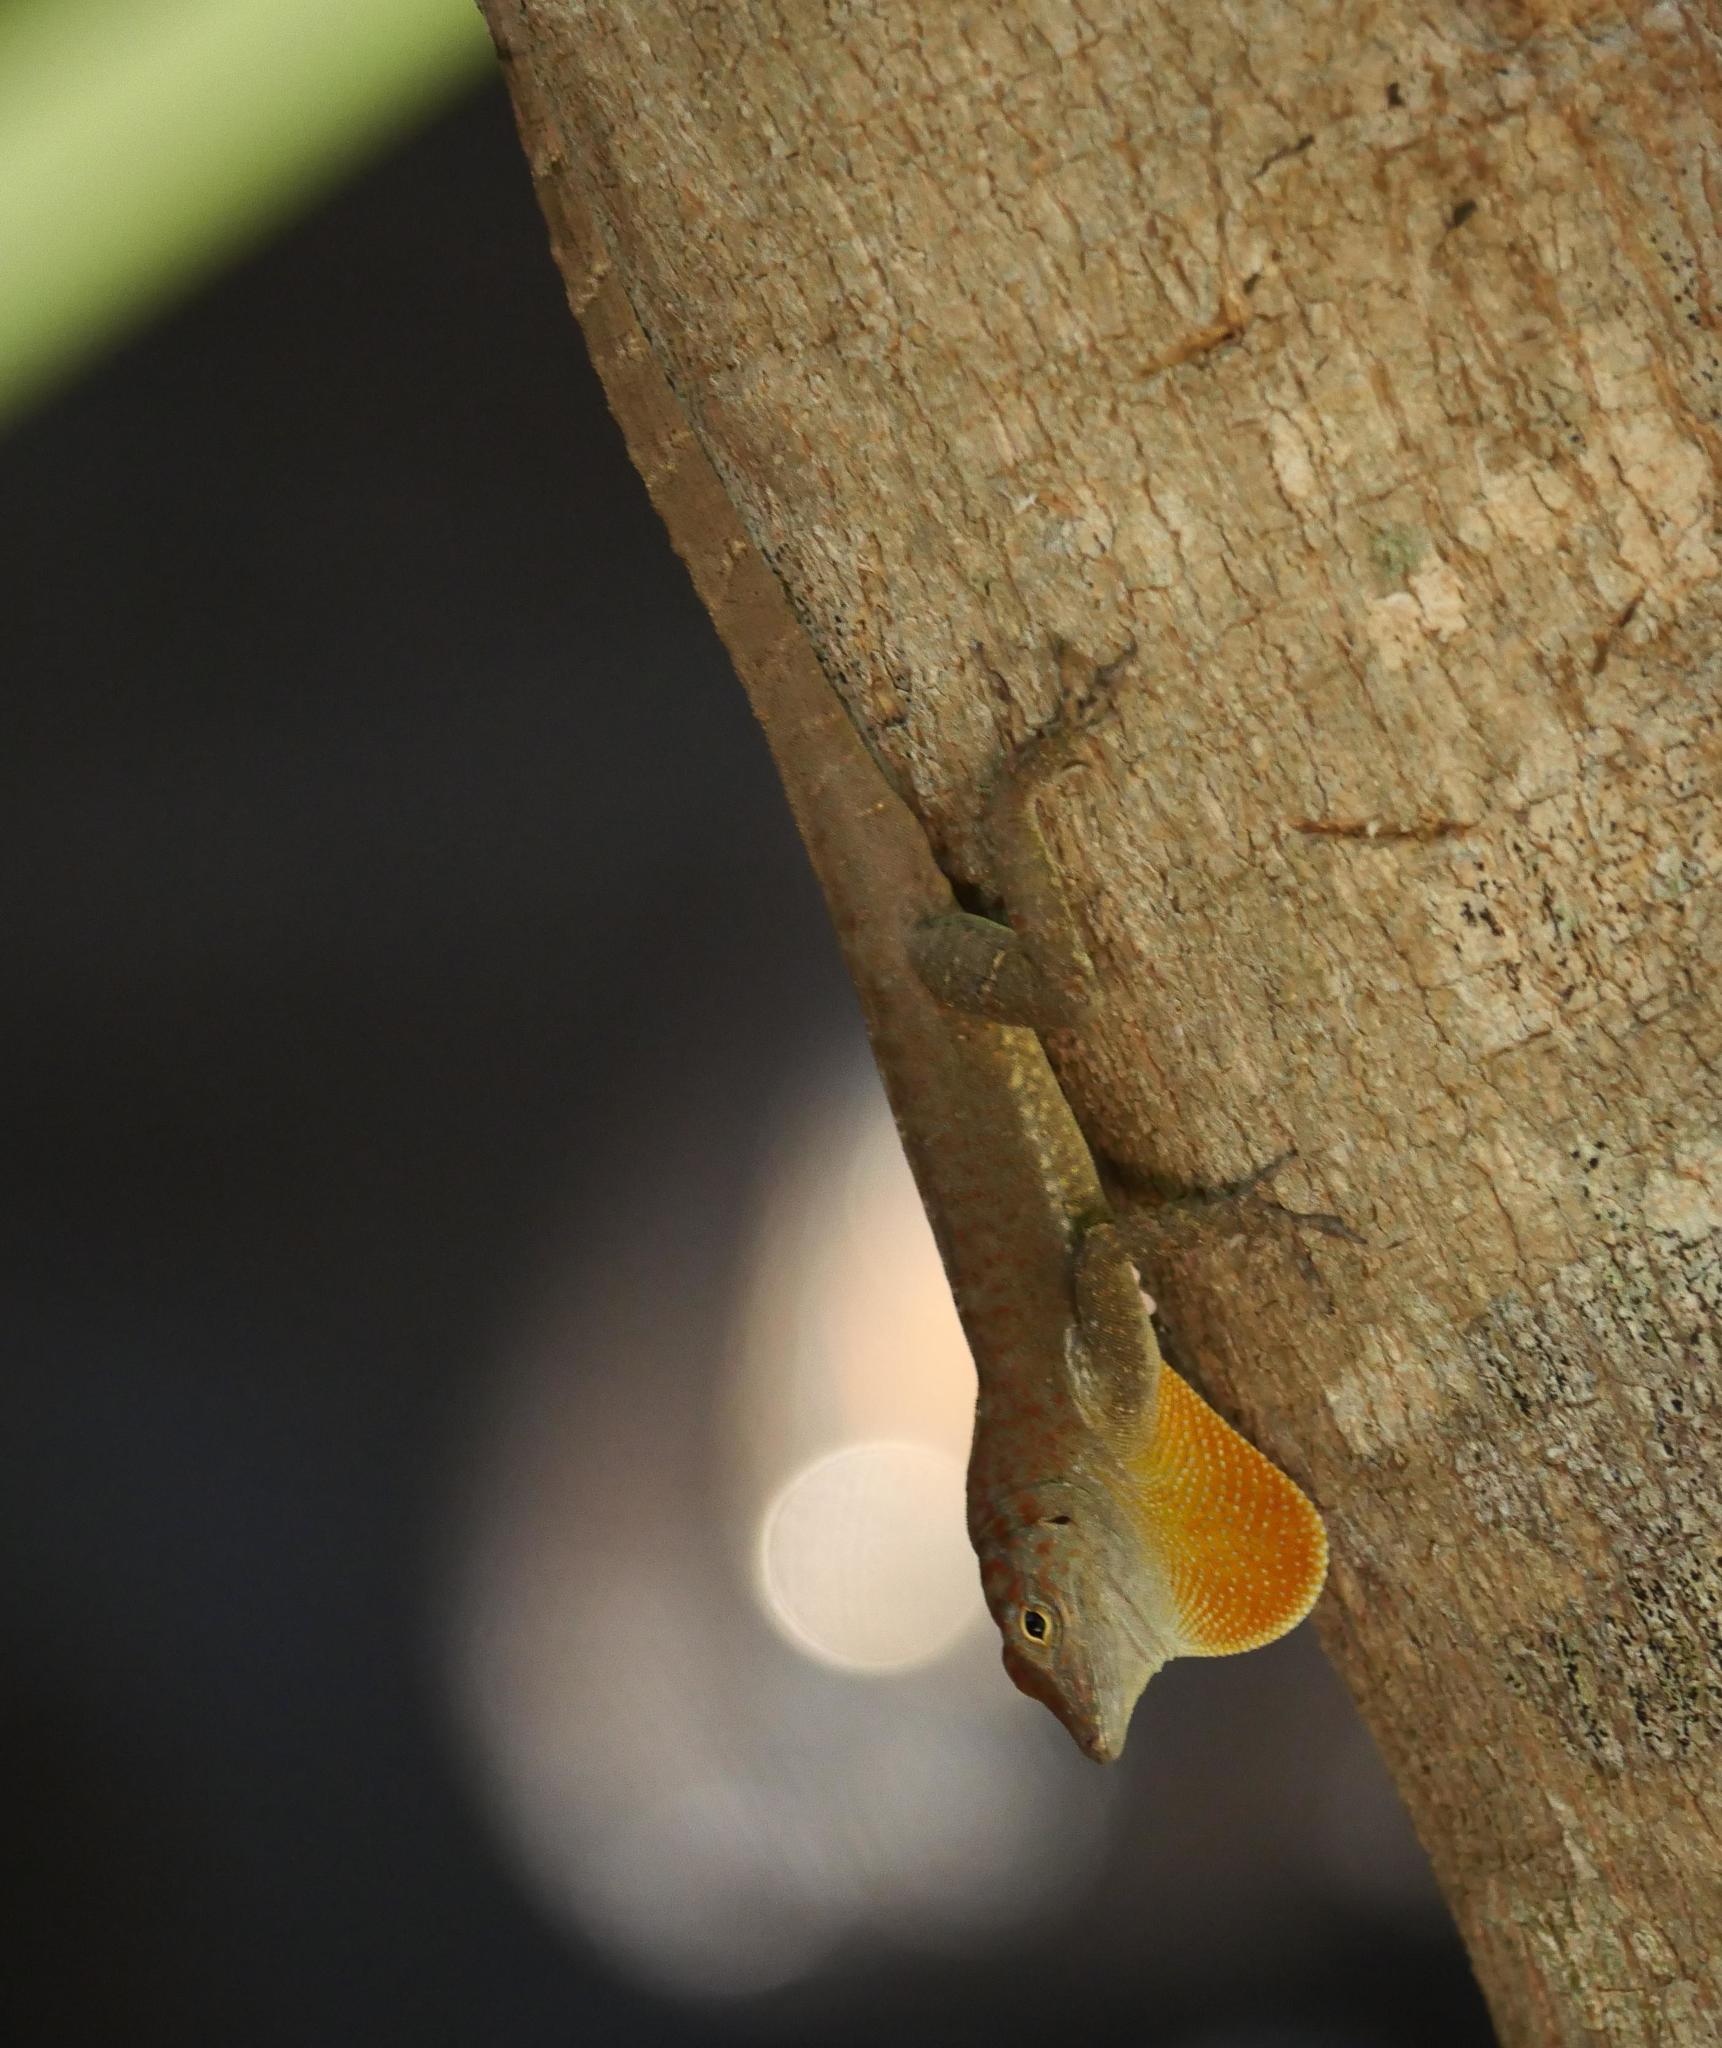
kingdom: Animalia
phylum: Chordata
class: Squamata
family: Dactyloidae
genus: Anolis
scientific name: Anolis scriptus
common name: Silver key anole
